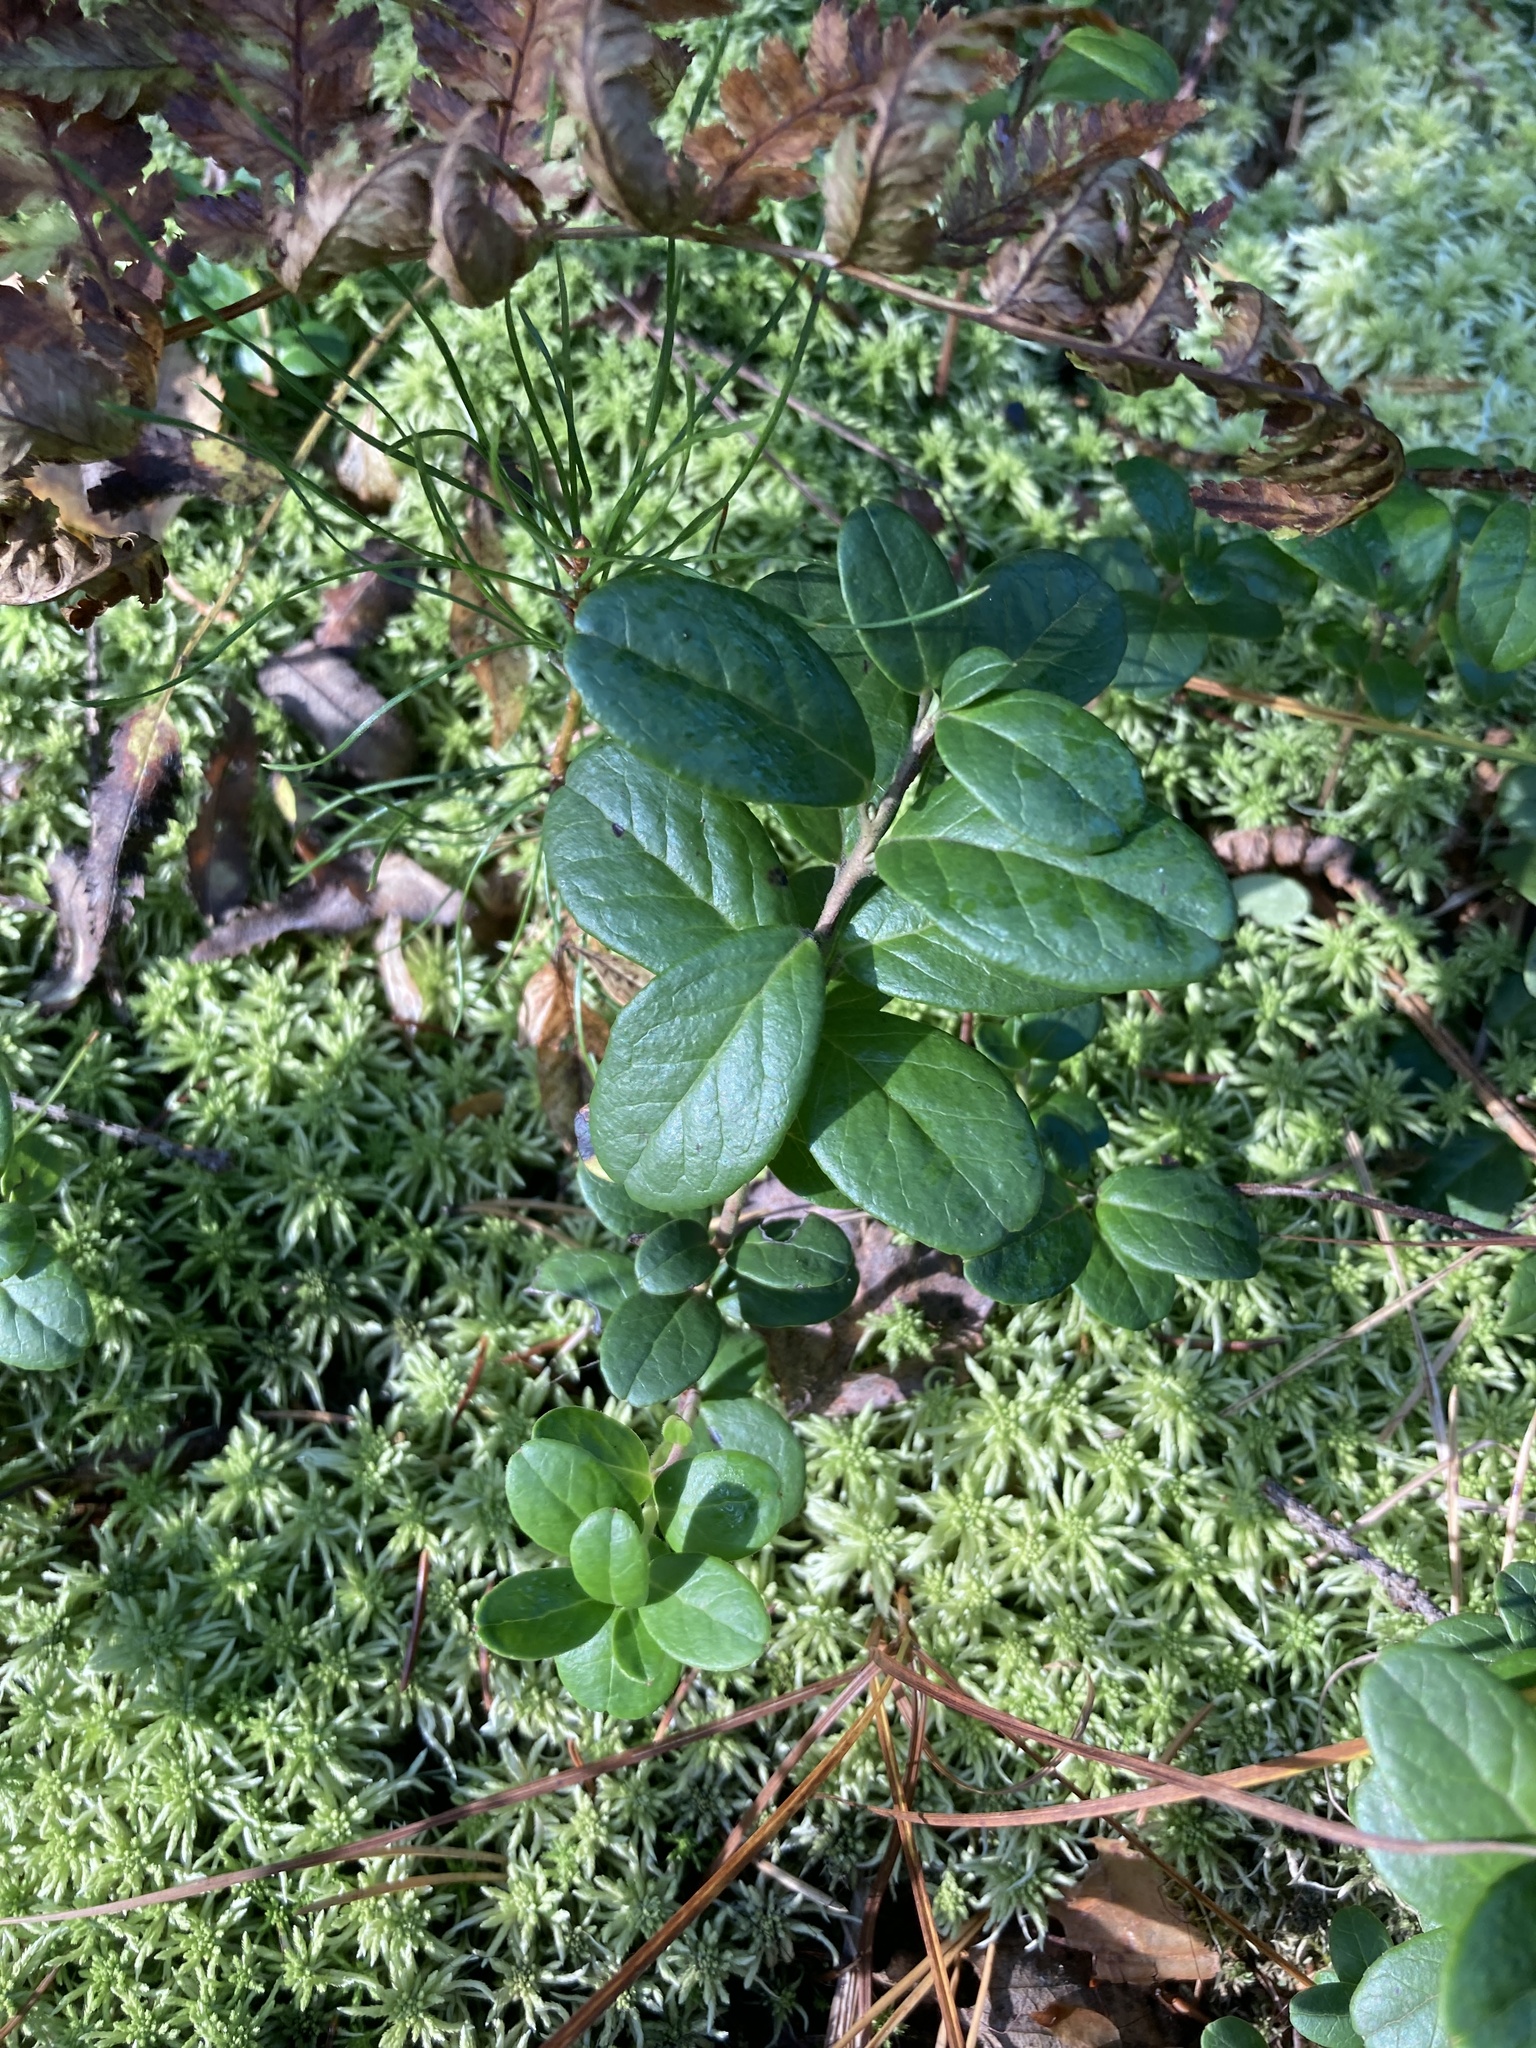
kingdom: Plantae
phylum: Tracheophyta
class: Magnoliopsida
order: Ericales
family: Ericaceae
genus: Vaccinium
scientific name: Vaccinium vitis-idaea
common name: Cowberry
